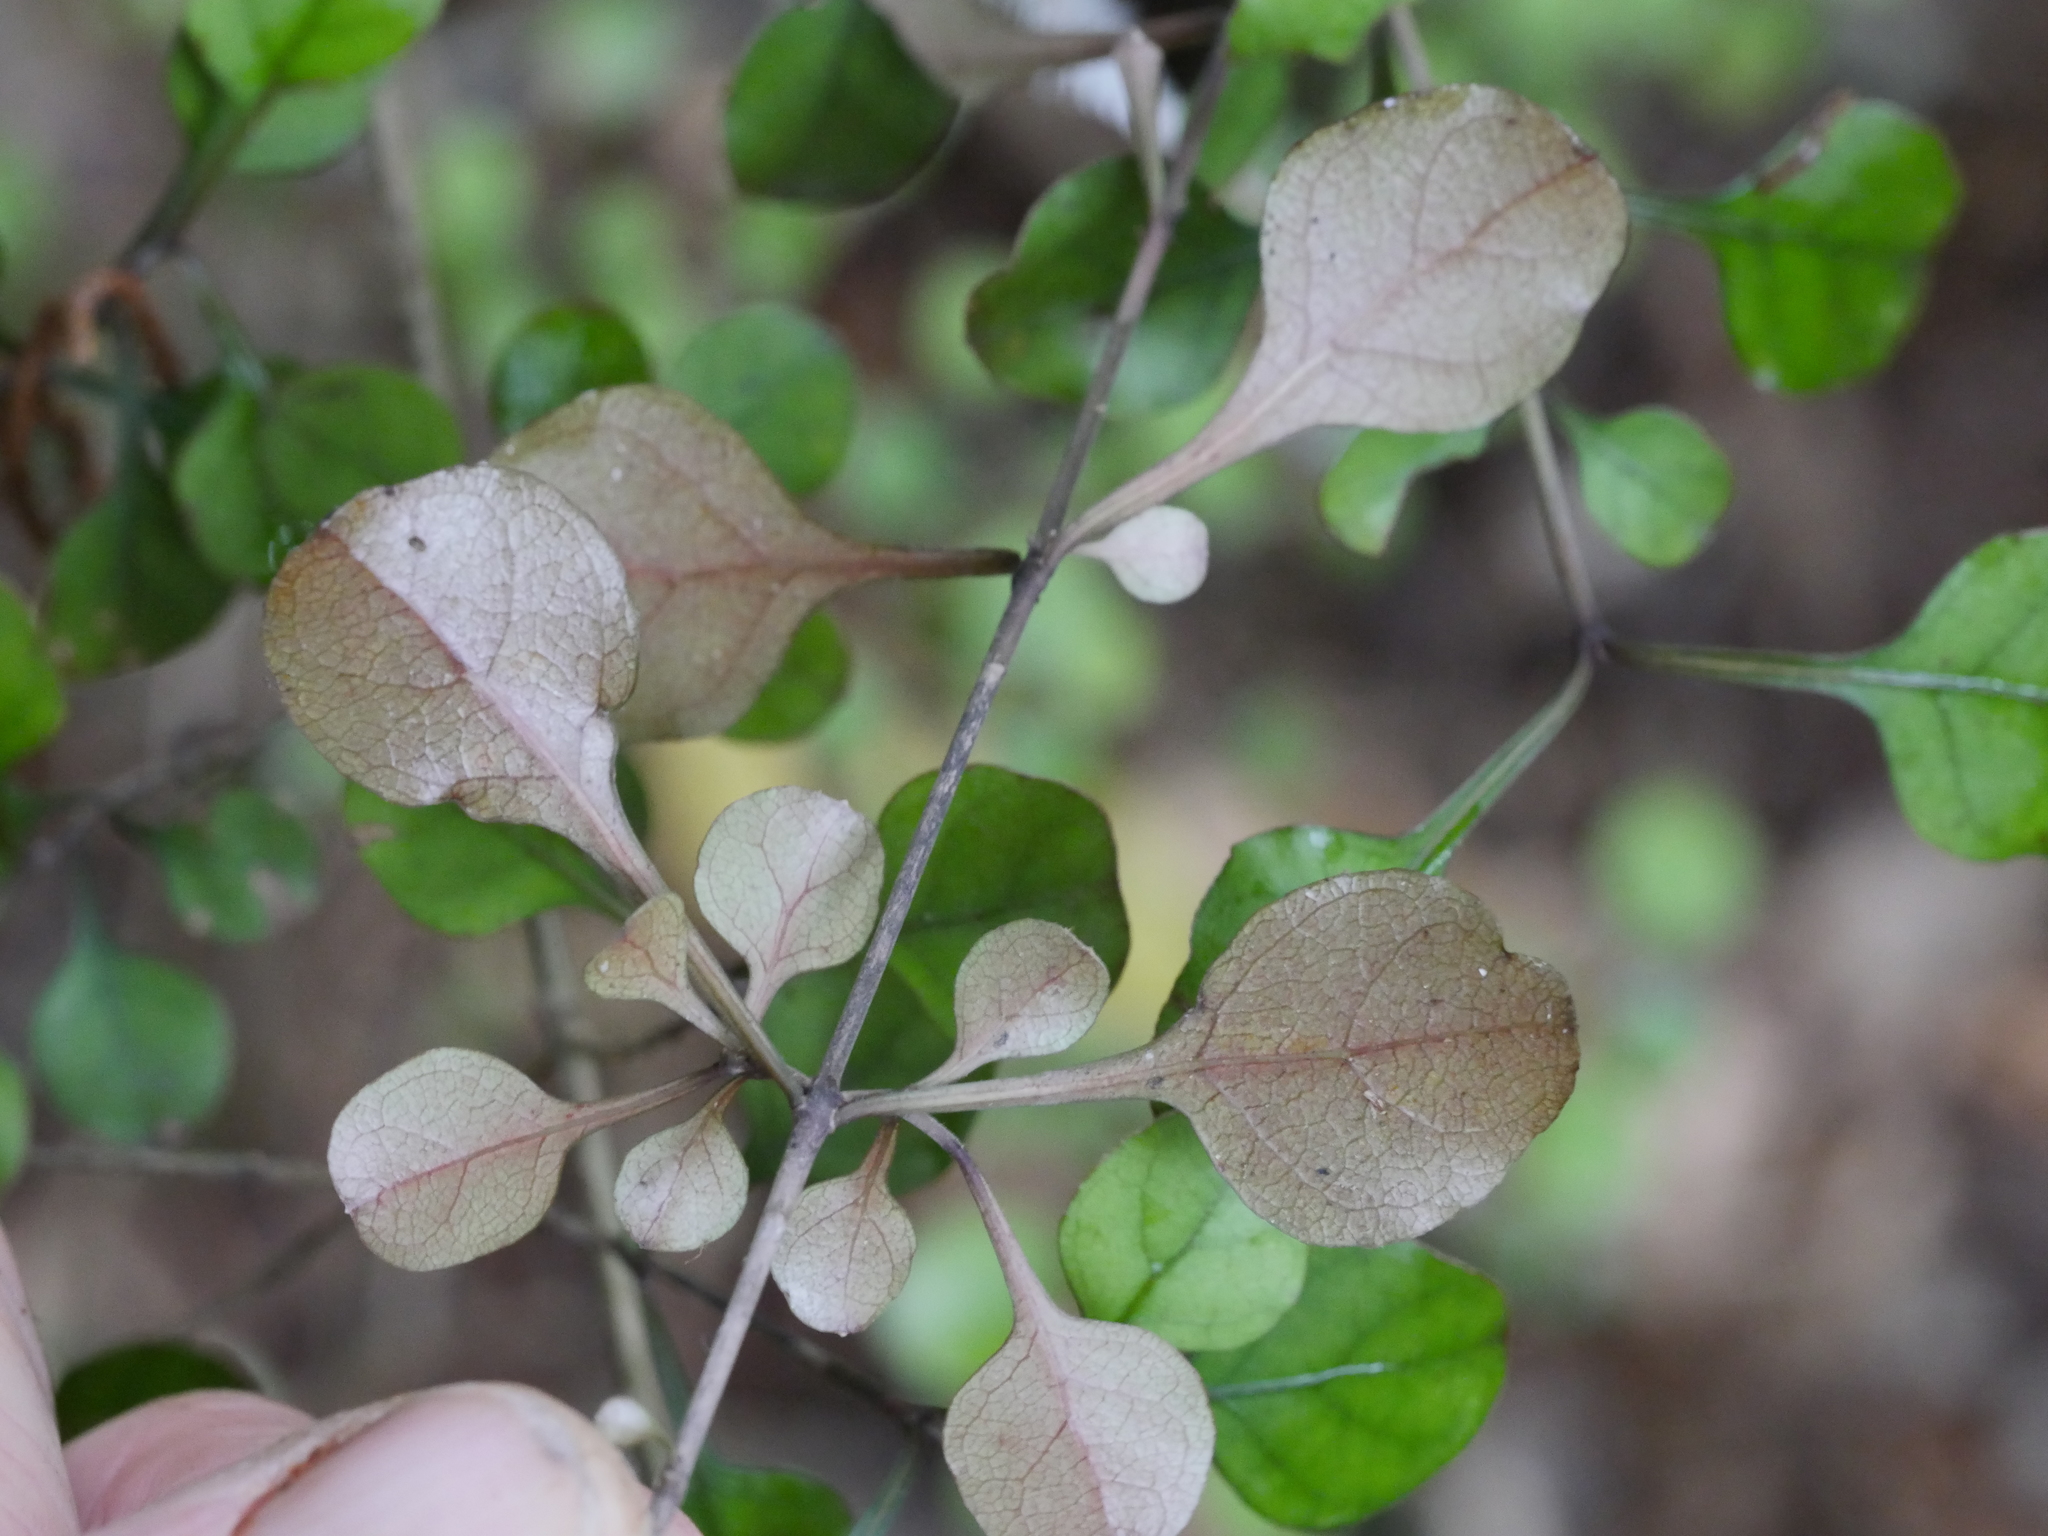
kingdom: Plantae
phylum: Tracheophyta
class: Magnoliopsida
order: Gentianales
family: Rubiaceae
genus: Coprosma
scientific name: Coprosma arborea
